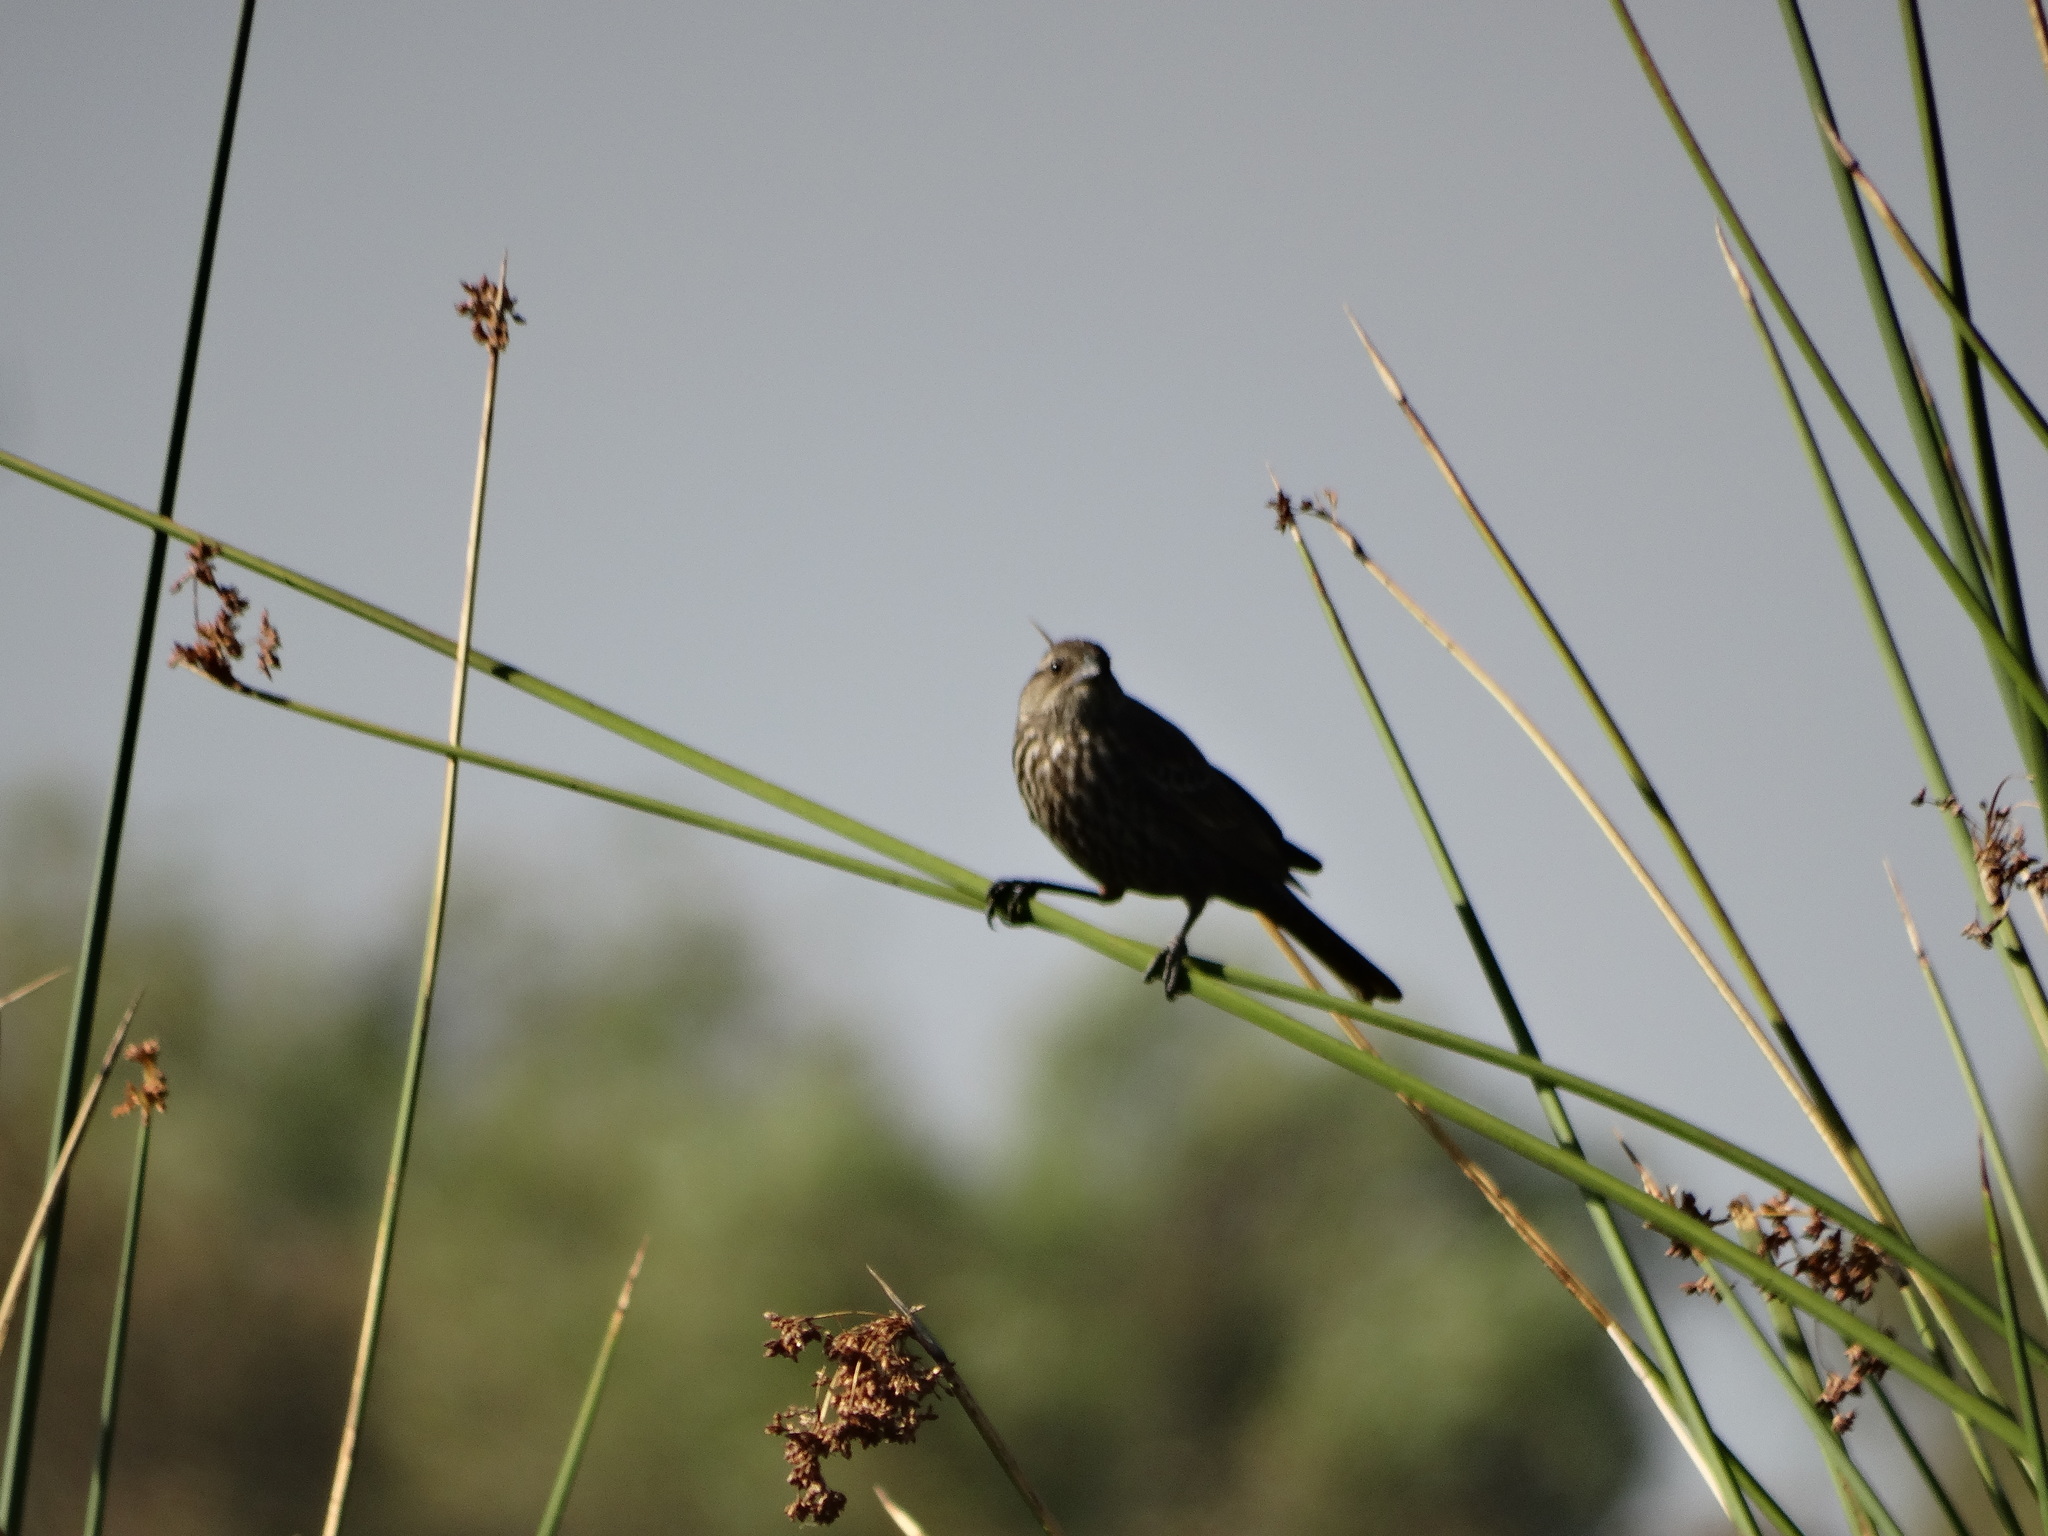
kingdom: Animalia
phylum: Chordata
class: Aves
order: Passeriformes
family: Icteridae
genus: Agelaius
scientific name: Agelaius phoeniceus
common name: Red-winged blackbird
